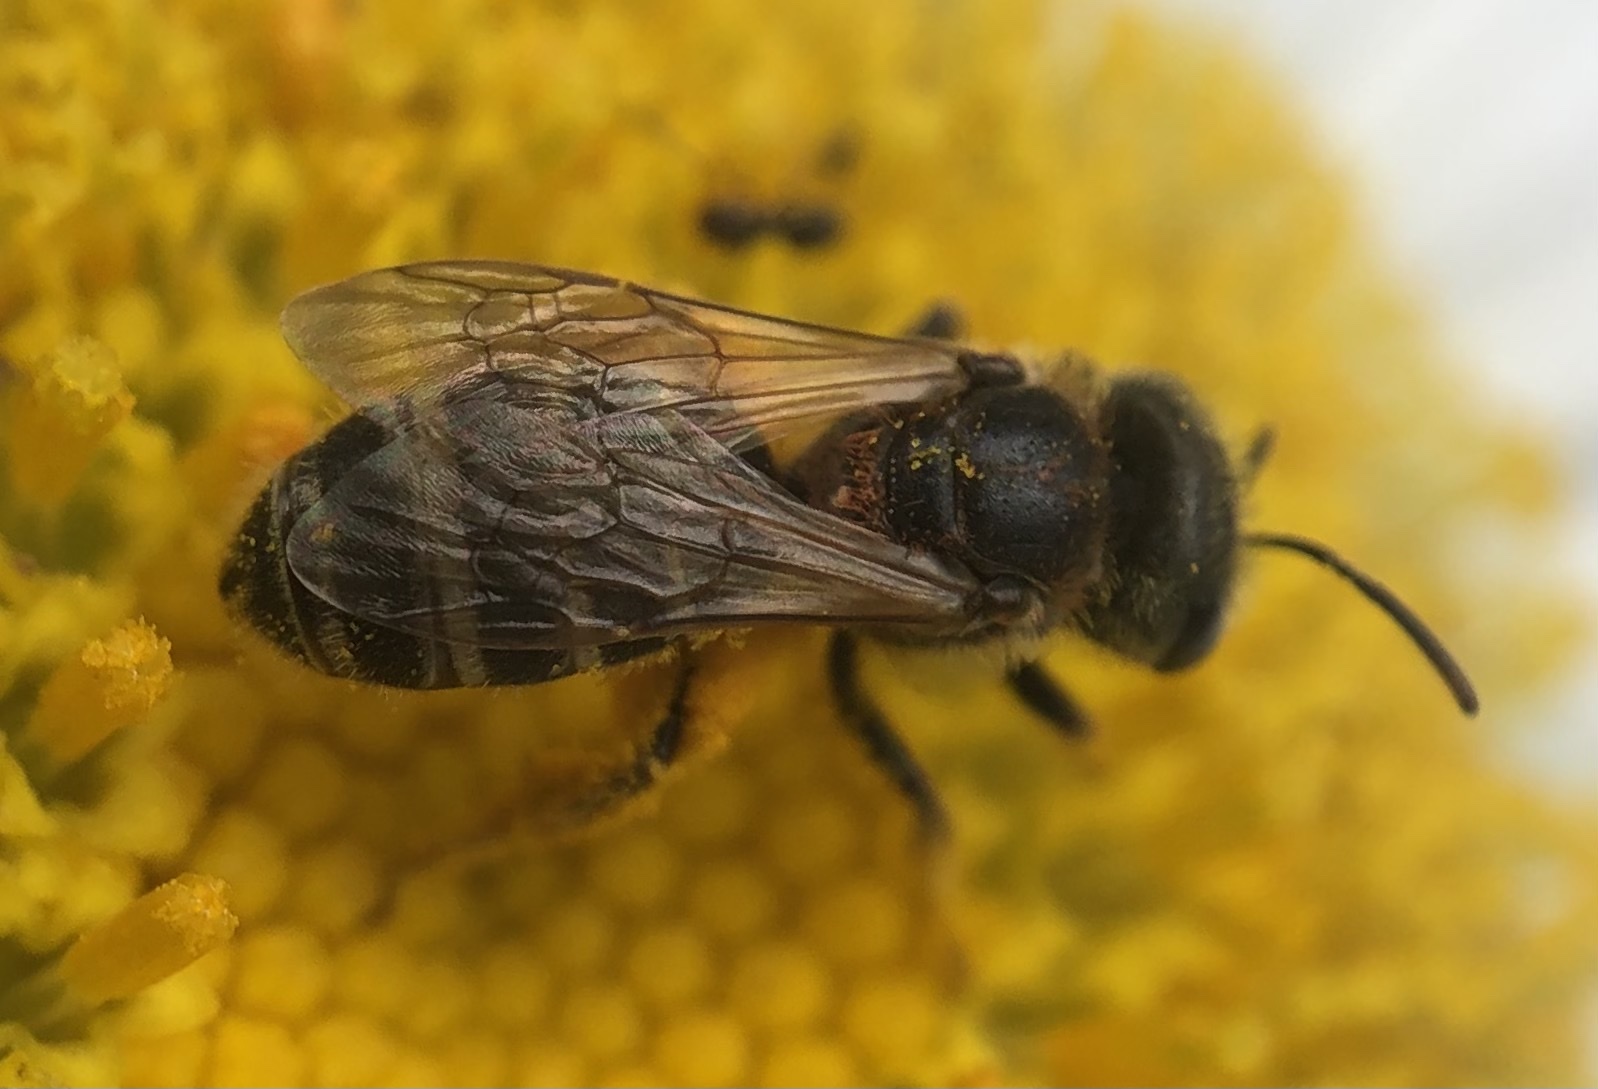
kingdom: Animalia
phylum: Arthropoda
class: Insecta
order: Hymenoptera
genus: Odontalictus
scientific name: Odontalictus
